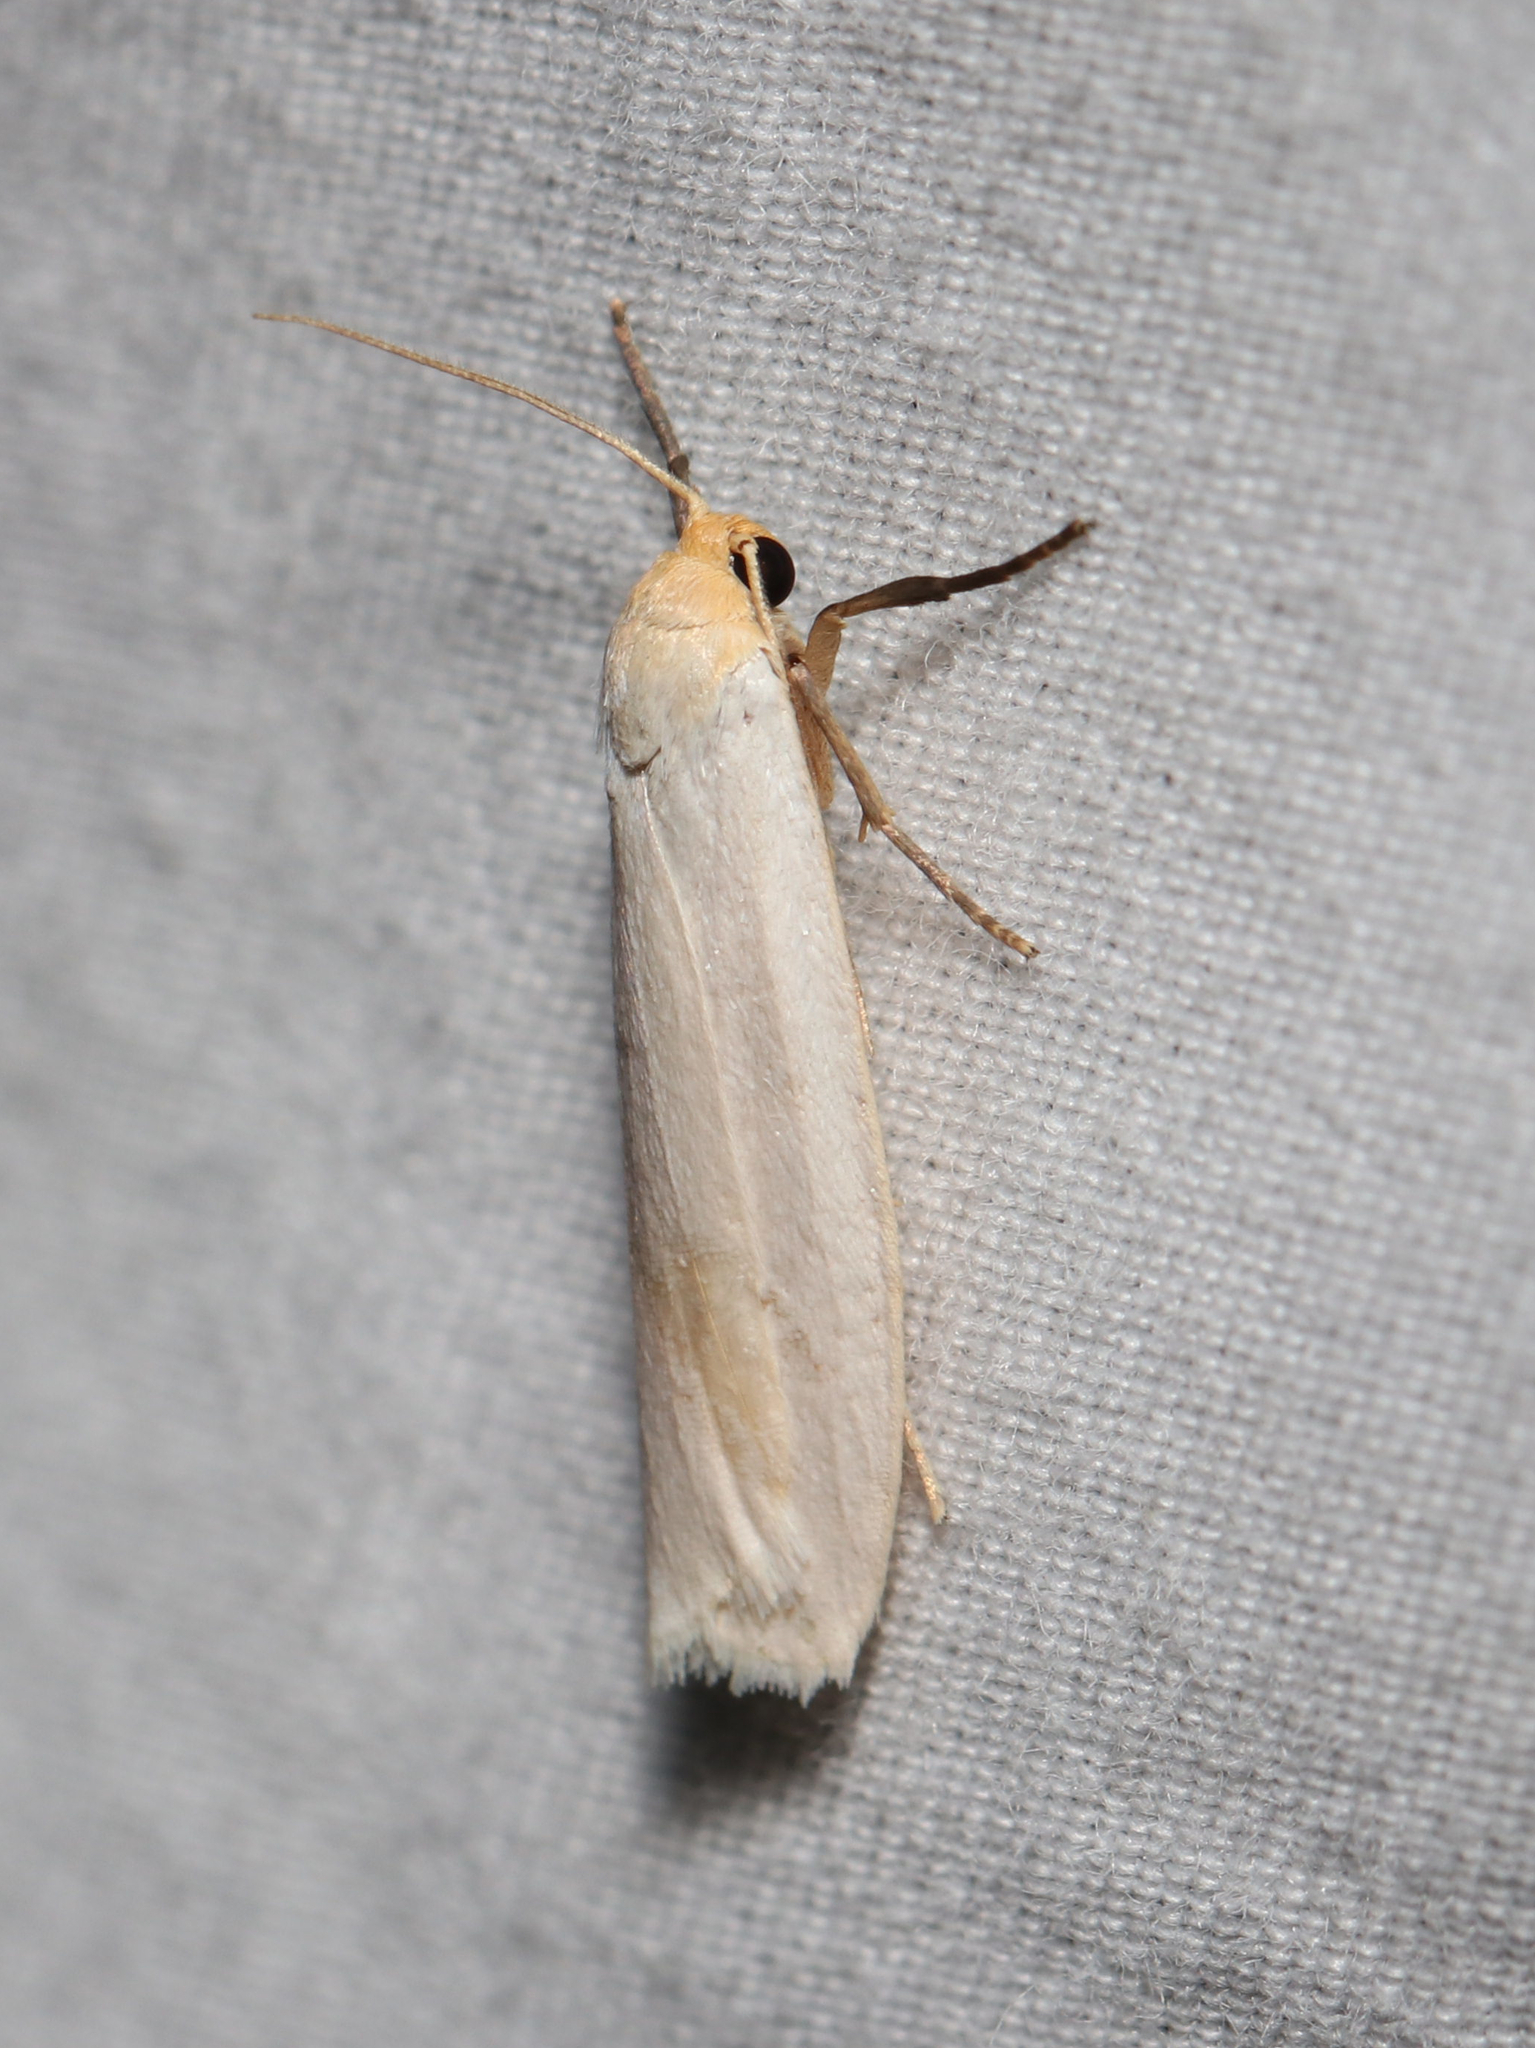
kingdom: Animalia
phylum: Arthropoda
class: Insecta
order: Lepidoptera
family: Erebidae
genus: Crambidia
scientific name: Crambidia xanthocorpa
